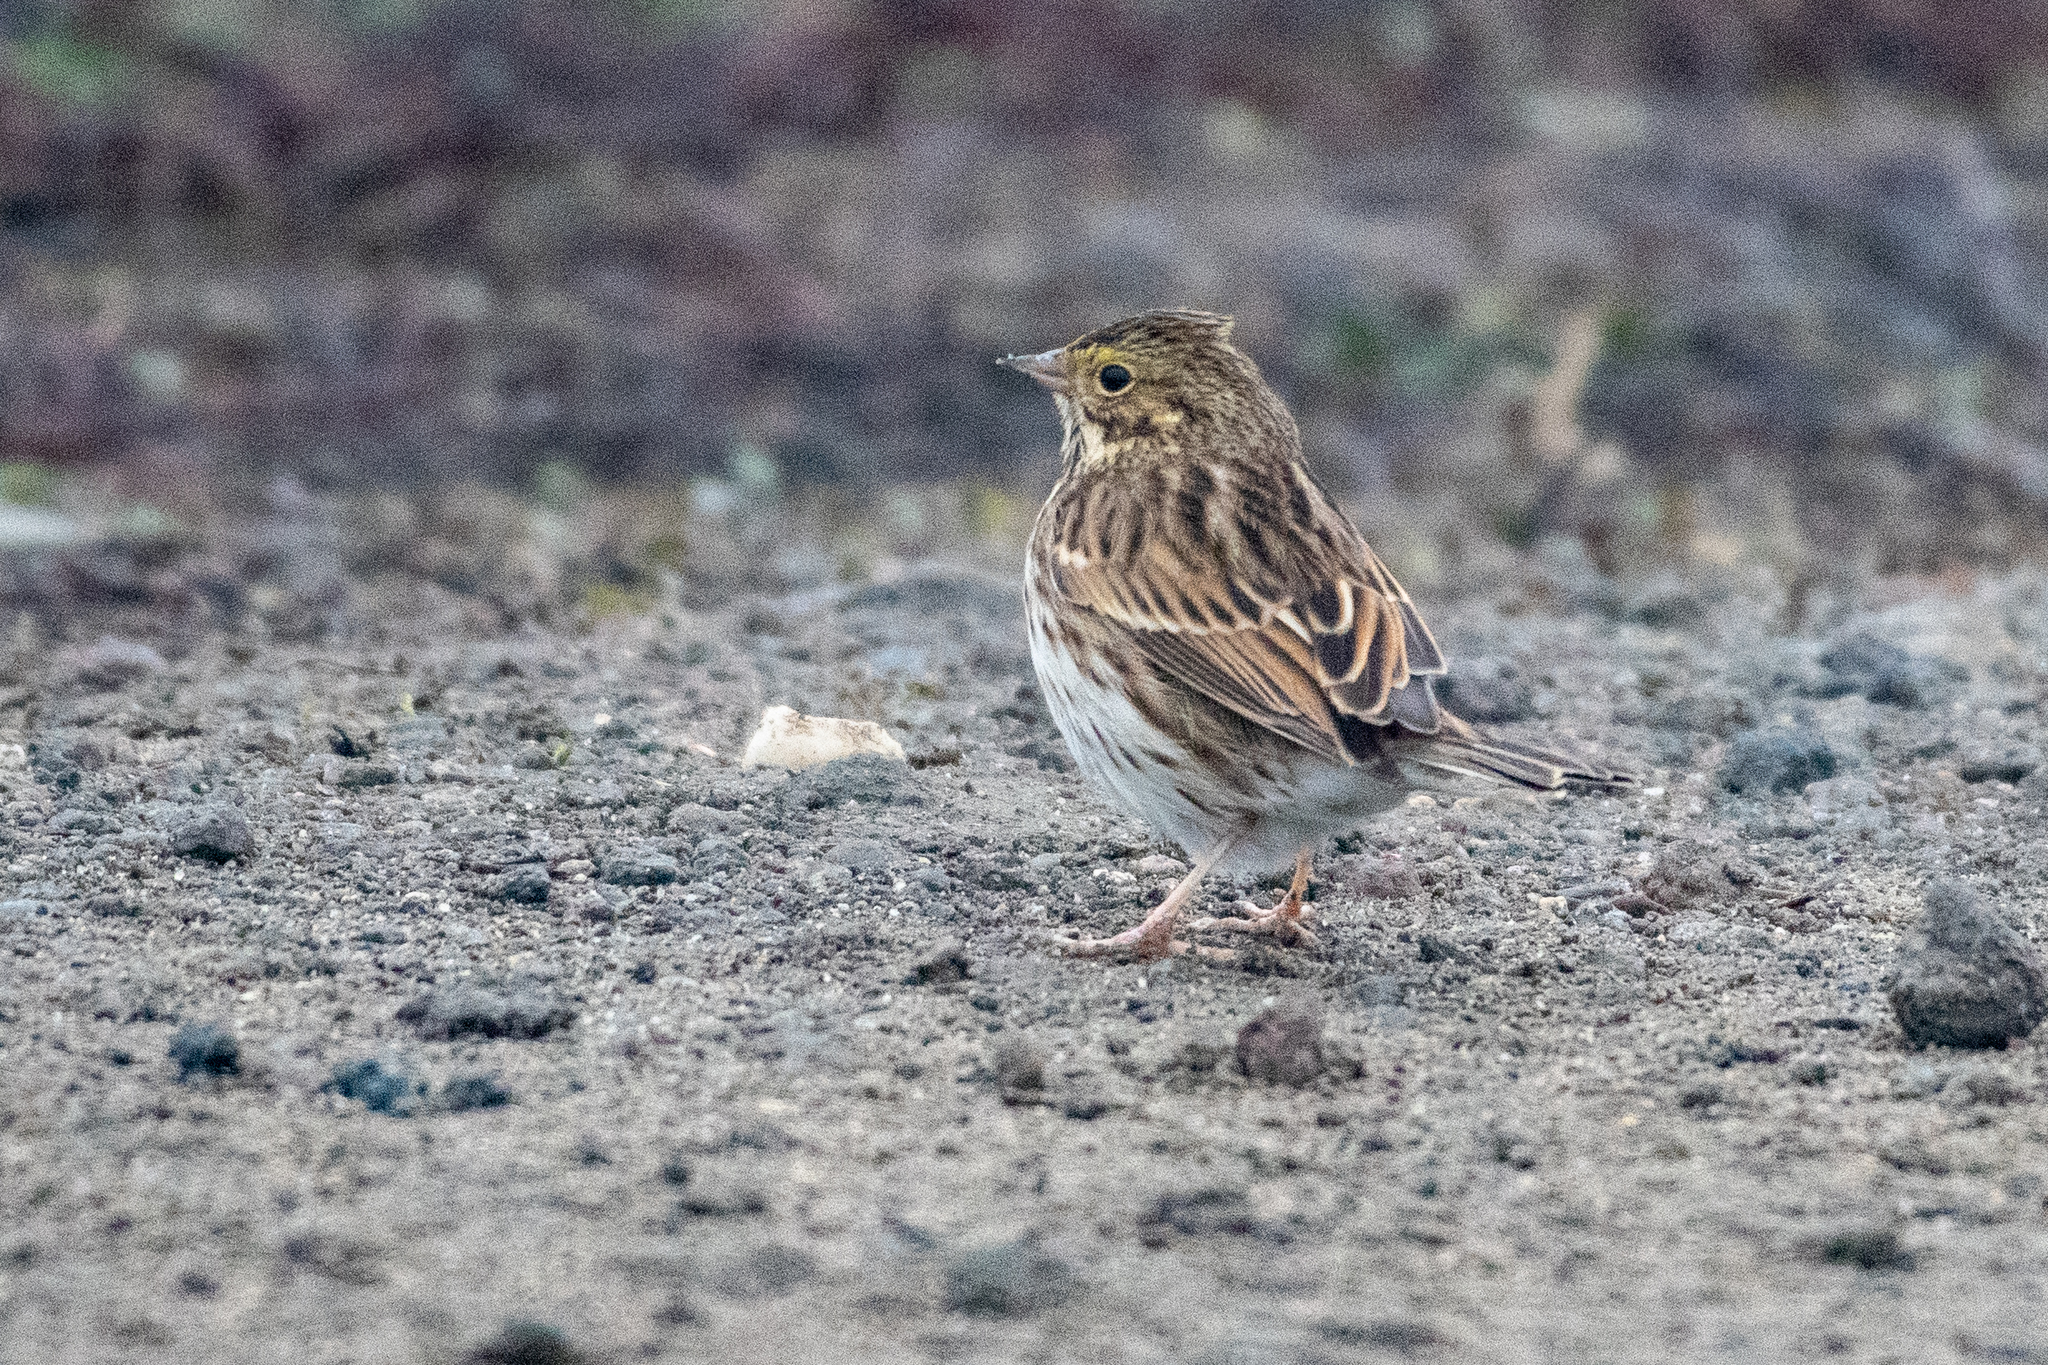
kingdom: Animalia
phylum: Chordata
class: Aves
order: Passeriformes
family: Passerellidae
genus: Passerculus
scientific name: Passerculus sandwichensis
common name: Savannah sparrow
